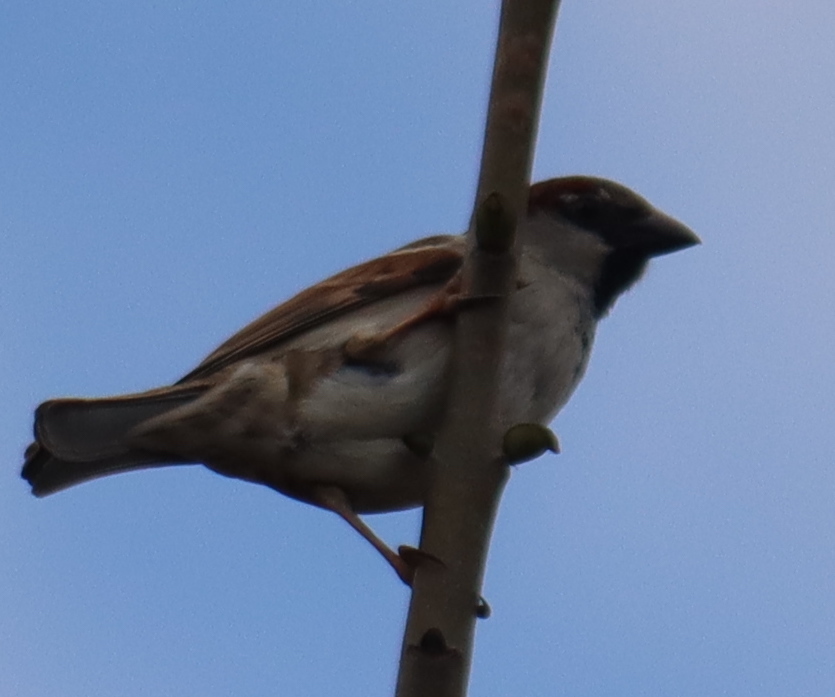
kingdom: Animalia
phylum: Chordata
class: Aves
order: Passeriformes
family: Passeridae
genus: Passer
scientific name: Passer domesticus
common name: House sparrow
